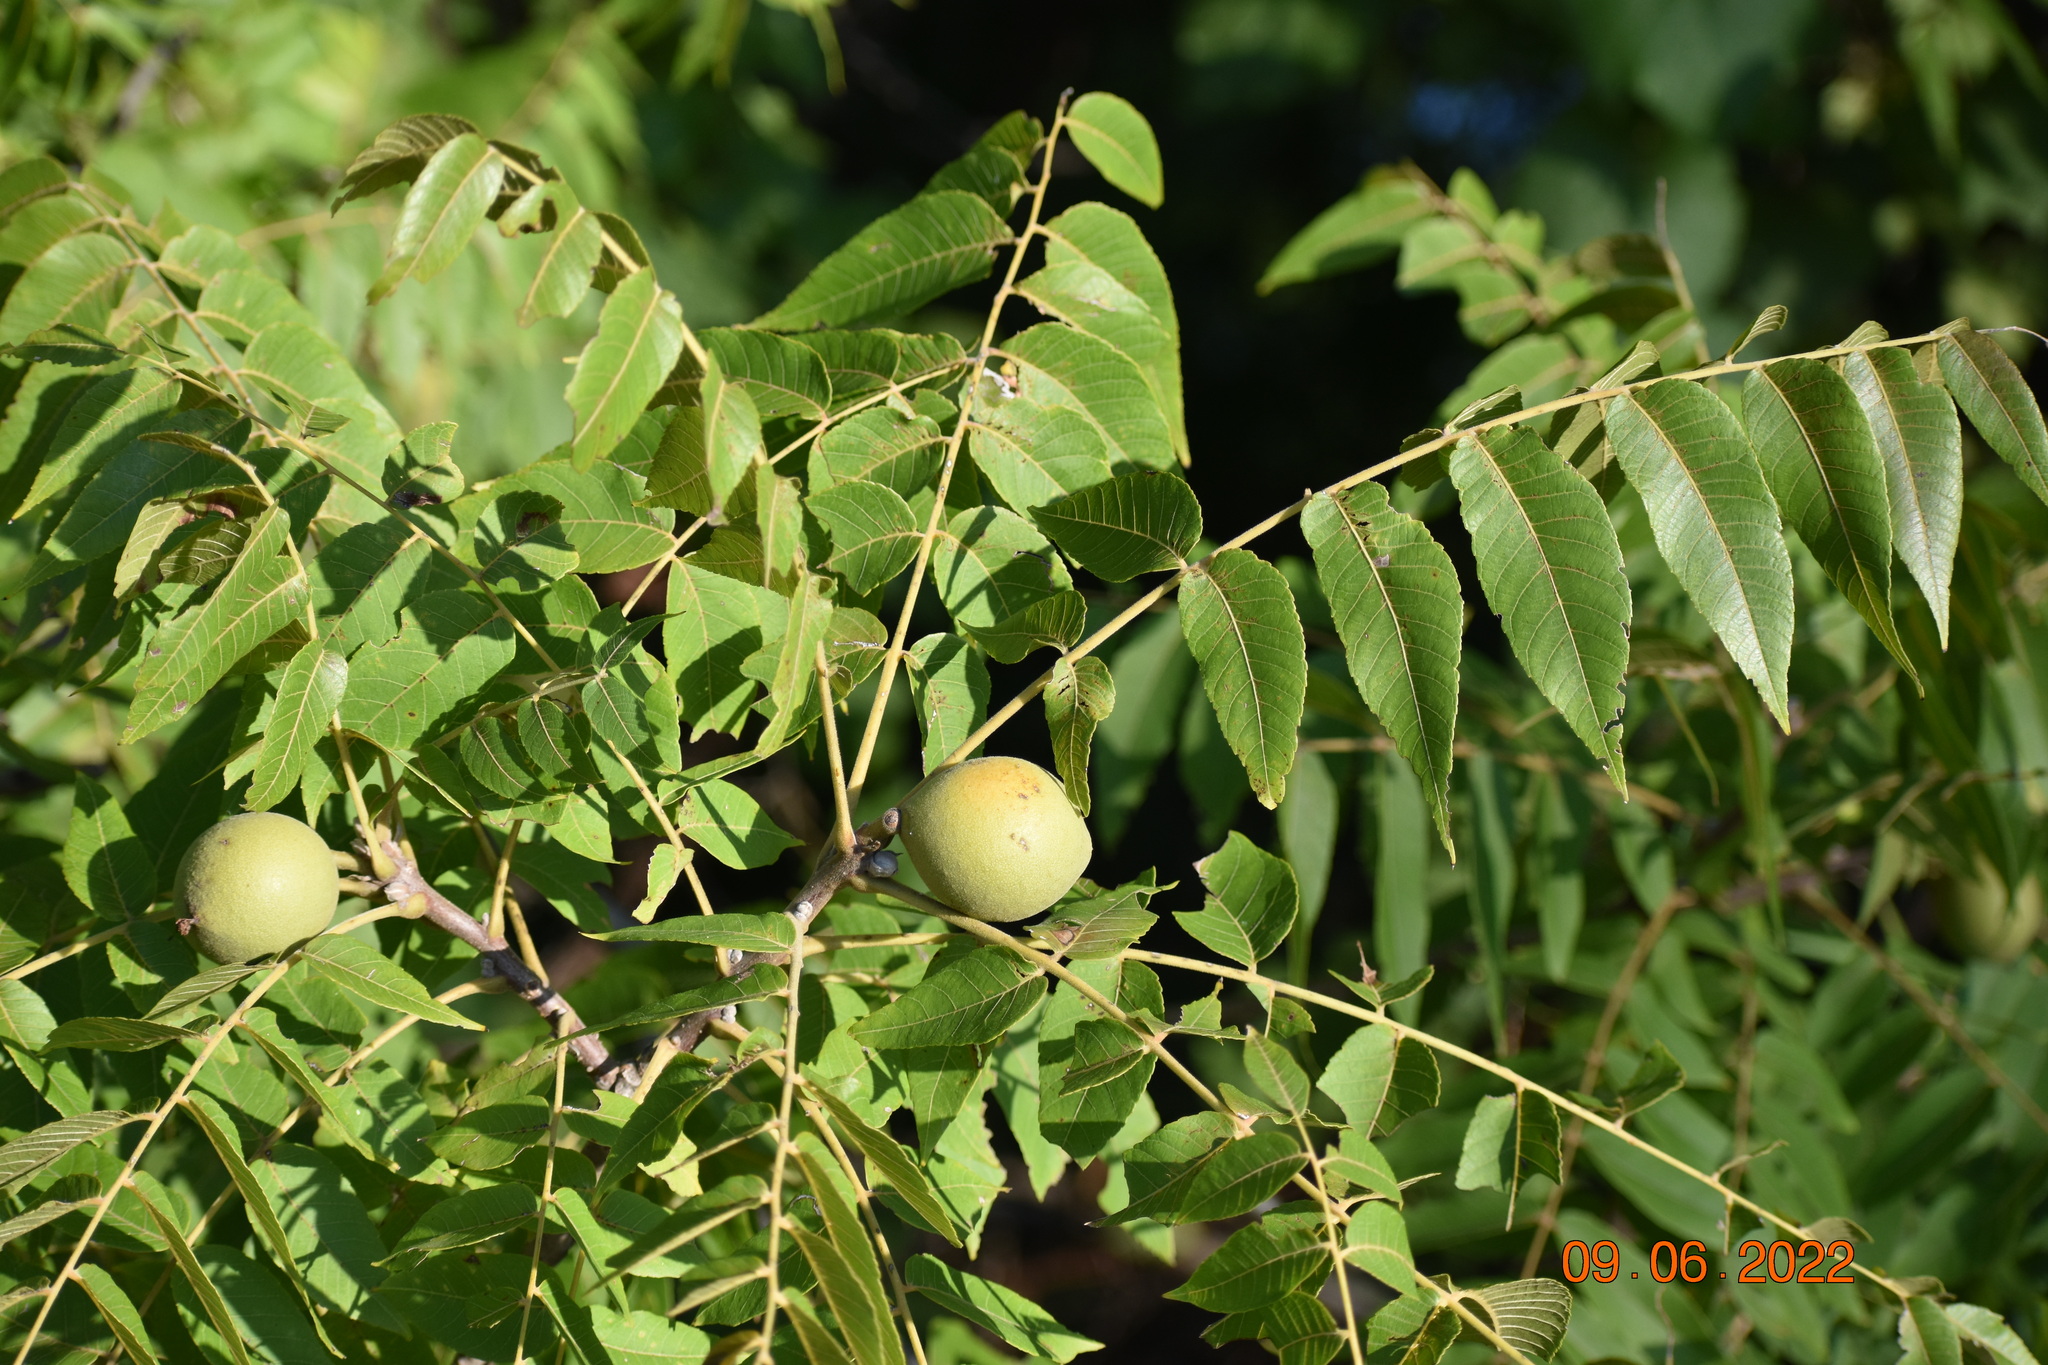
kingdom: Plantae
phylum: Tracheophyta
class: Magnoliopsida
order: Fagales
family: Juglandaceae
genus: Juglans
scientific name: Juglans nigra
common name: Black walnut
